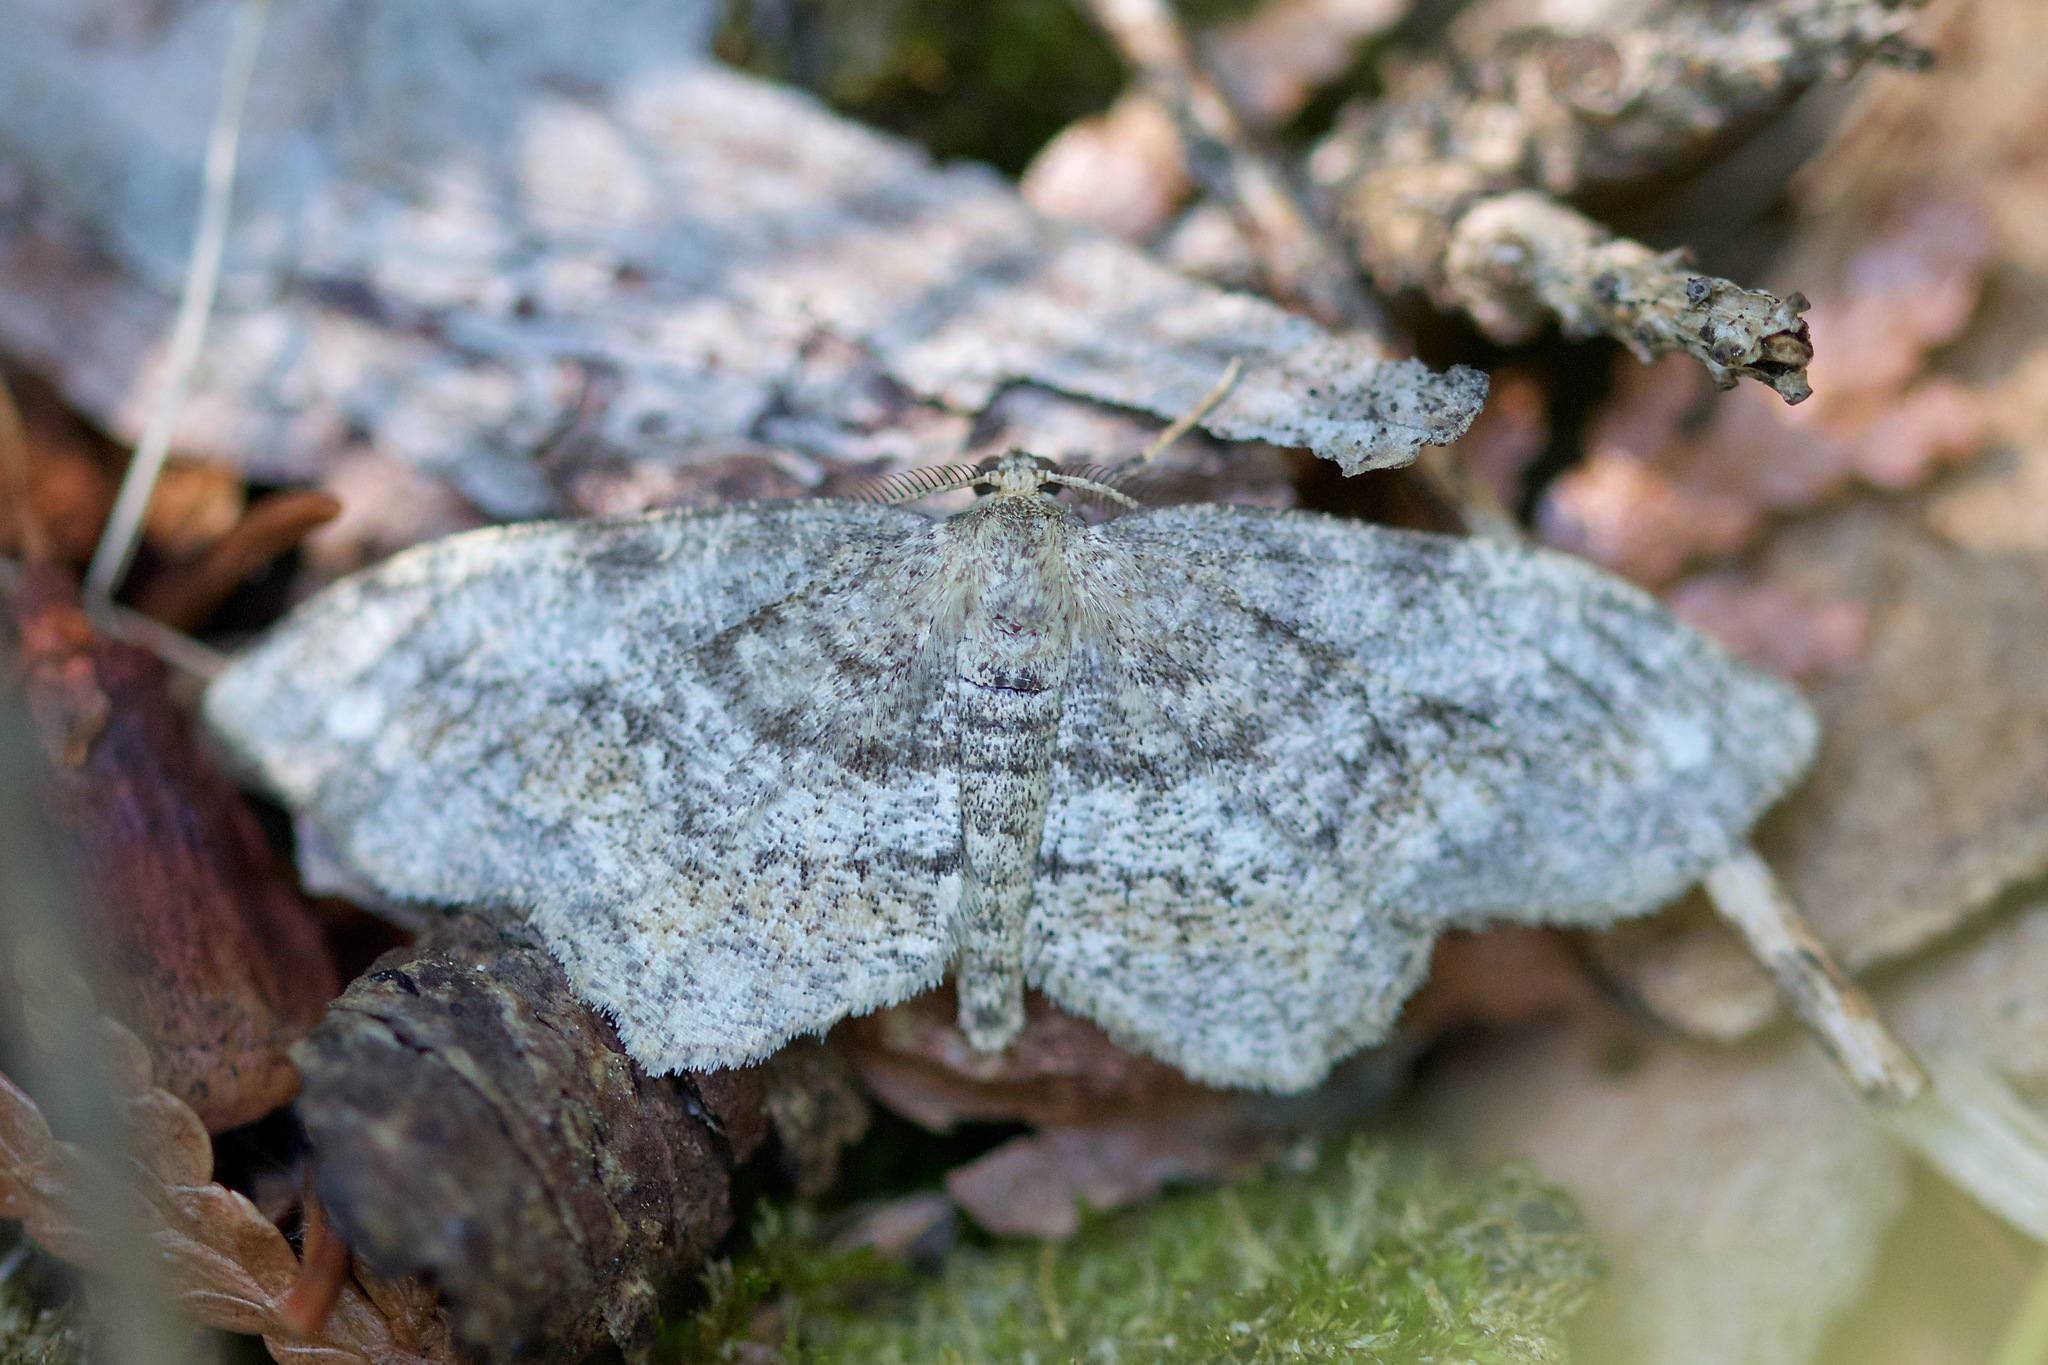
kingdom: Animalia
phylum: Arthropoda
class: Insecta
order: Lepidoptera
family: Geometridae
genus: Hypagyrtis
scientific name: Hypagyrtis unipunctata
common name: One-spotted variant
